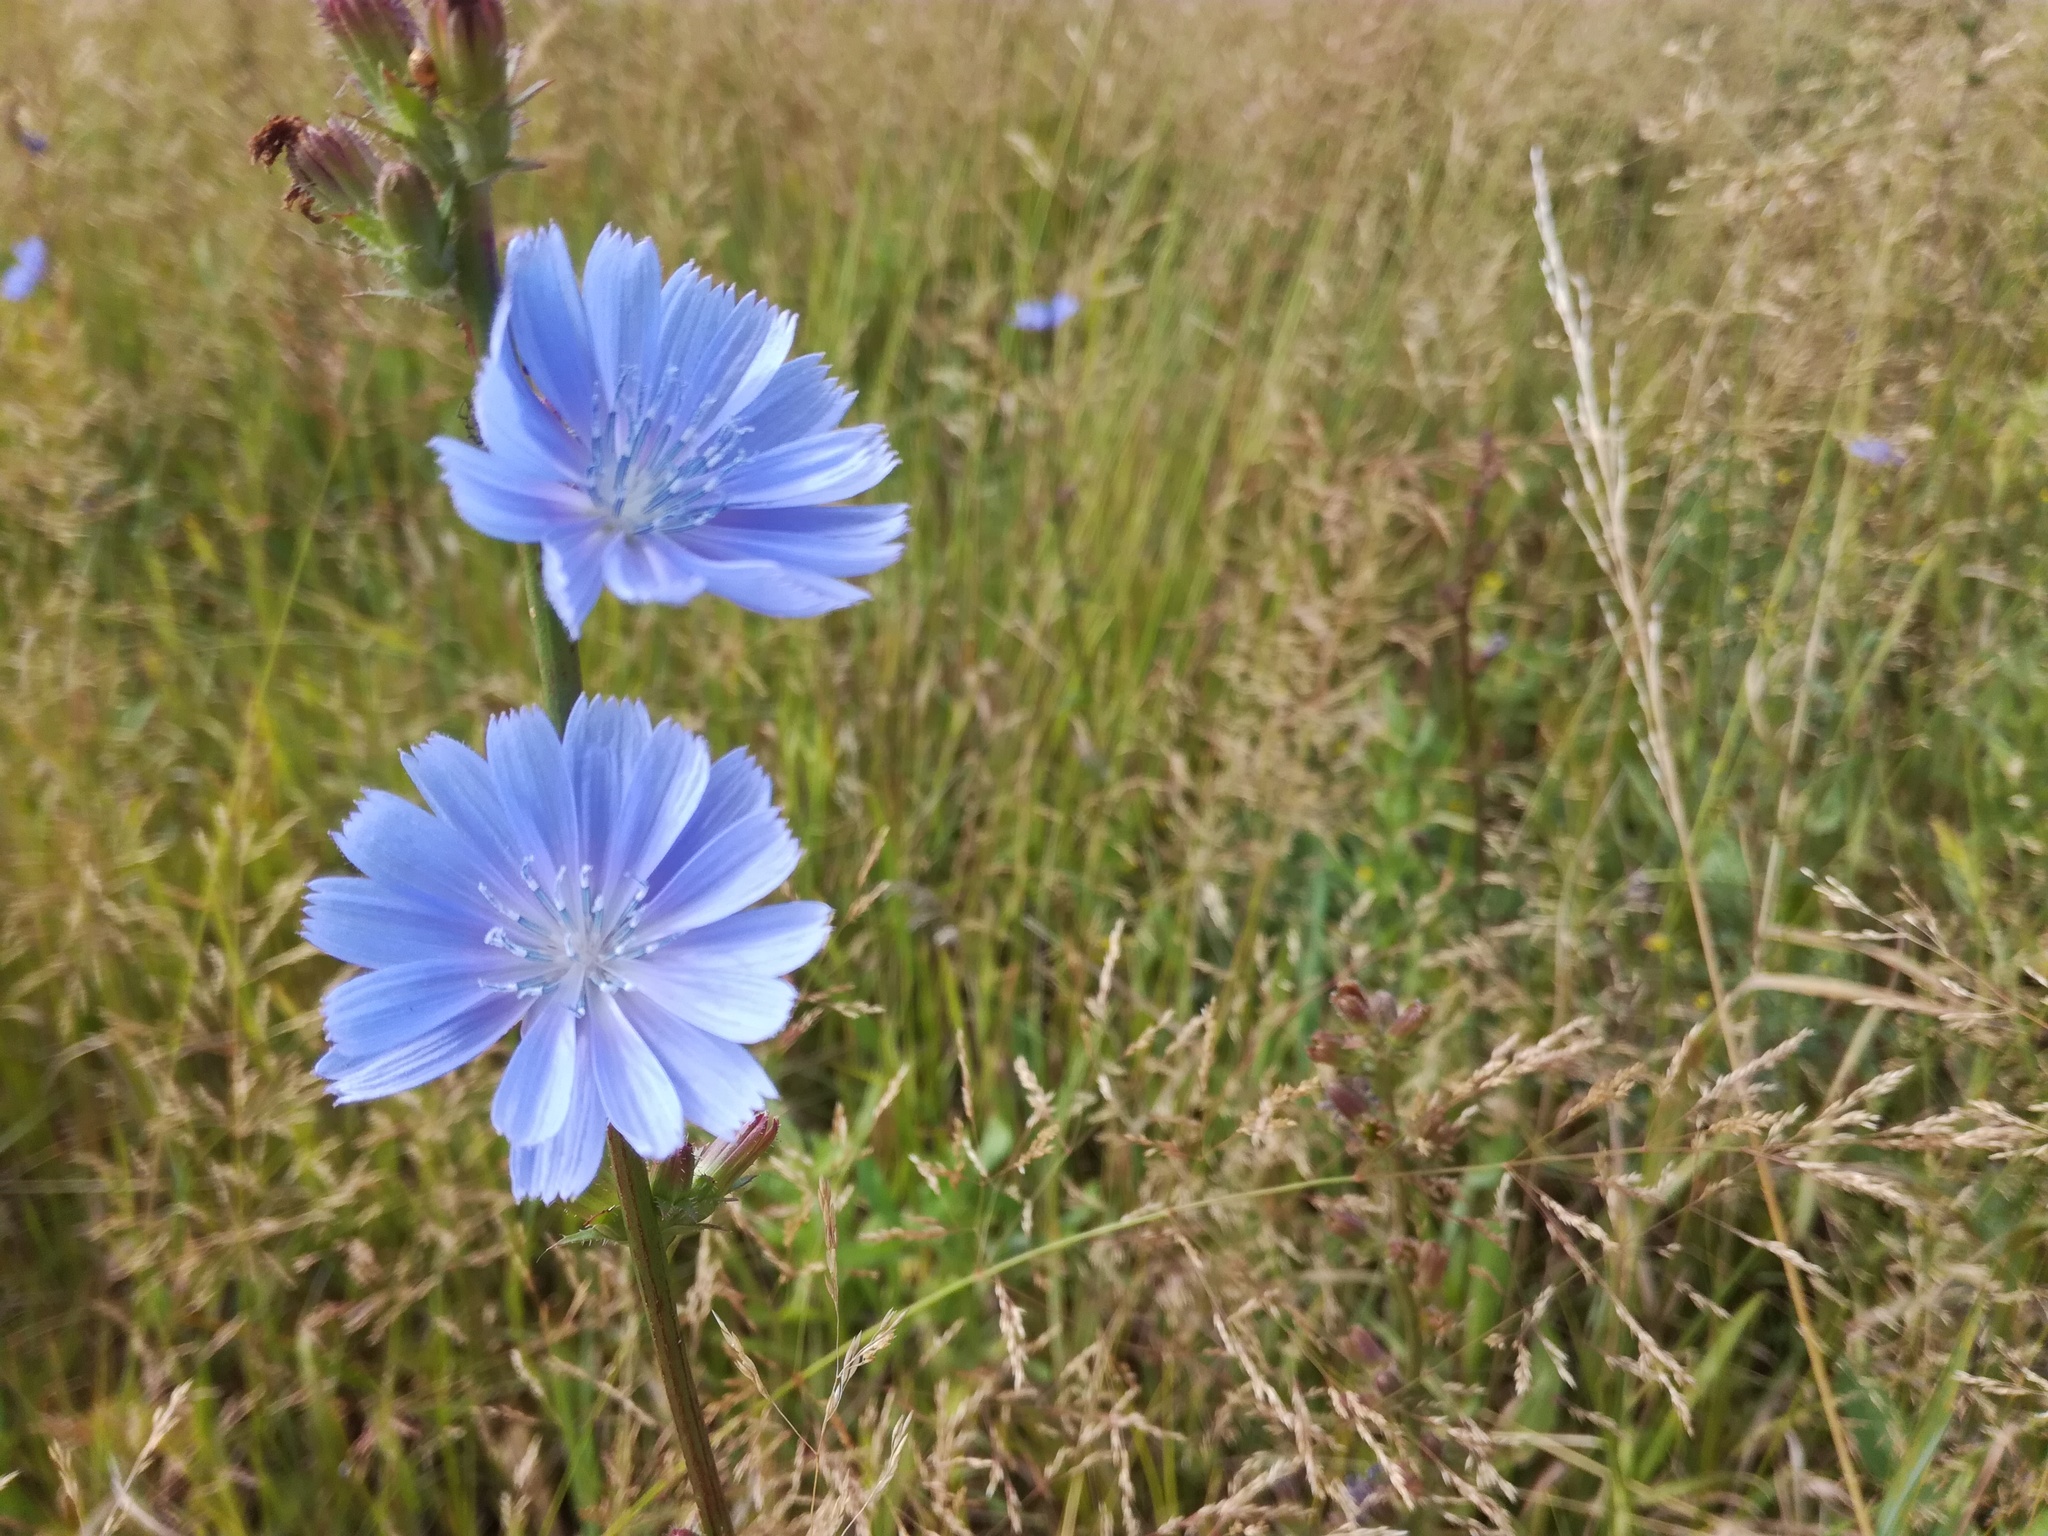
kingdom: Plantae
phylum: Tracheophyta
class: Magnoliopsida
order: Asterales
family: Asteraceae
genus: Cichorium
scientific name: Cichorium intybus
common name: Chicory
